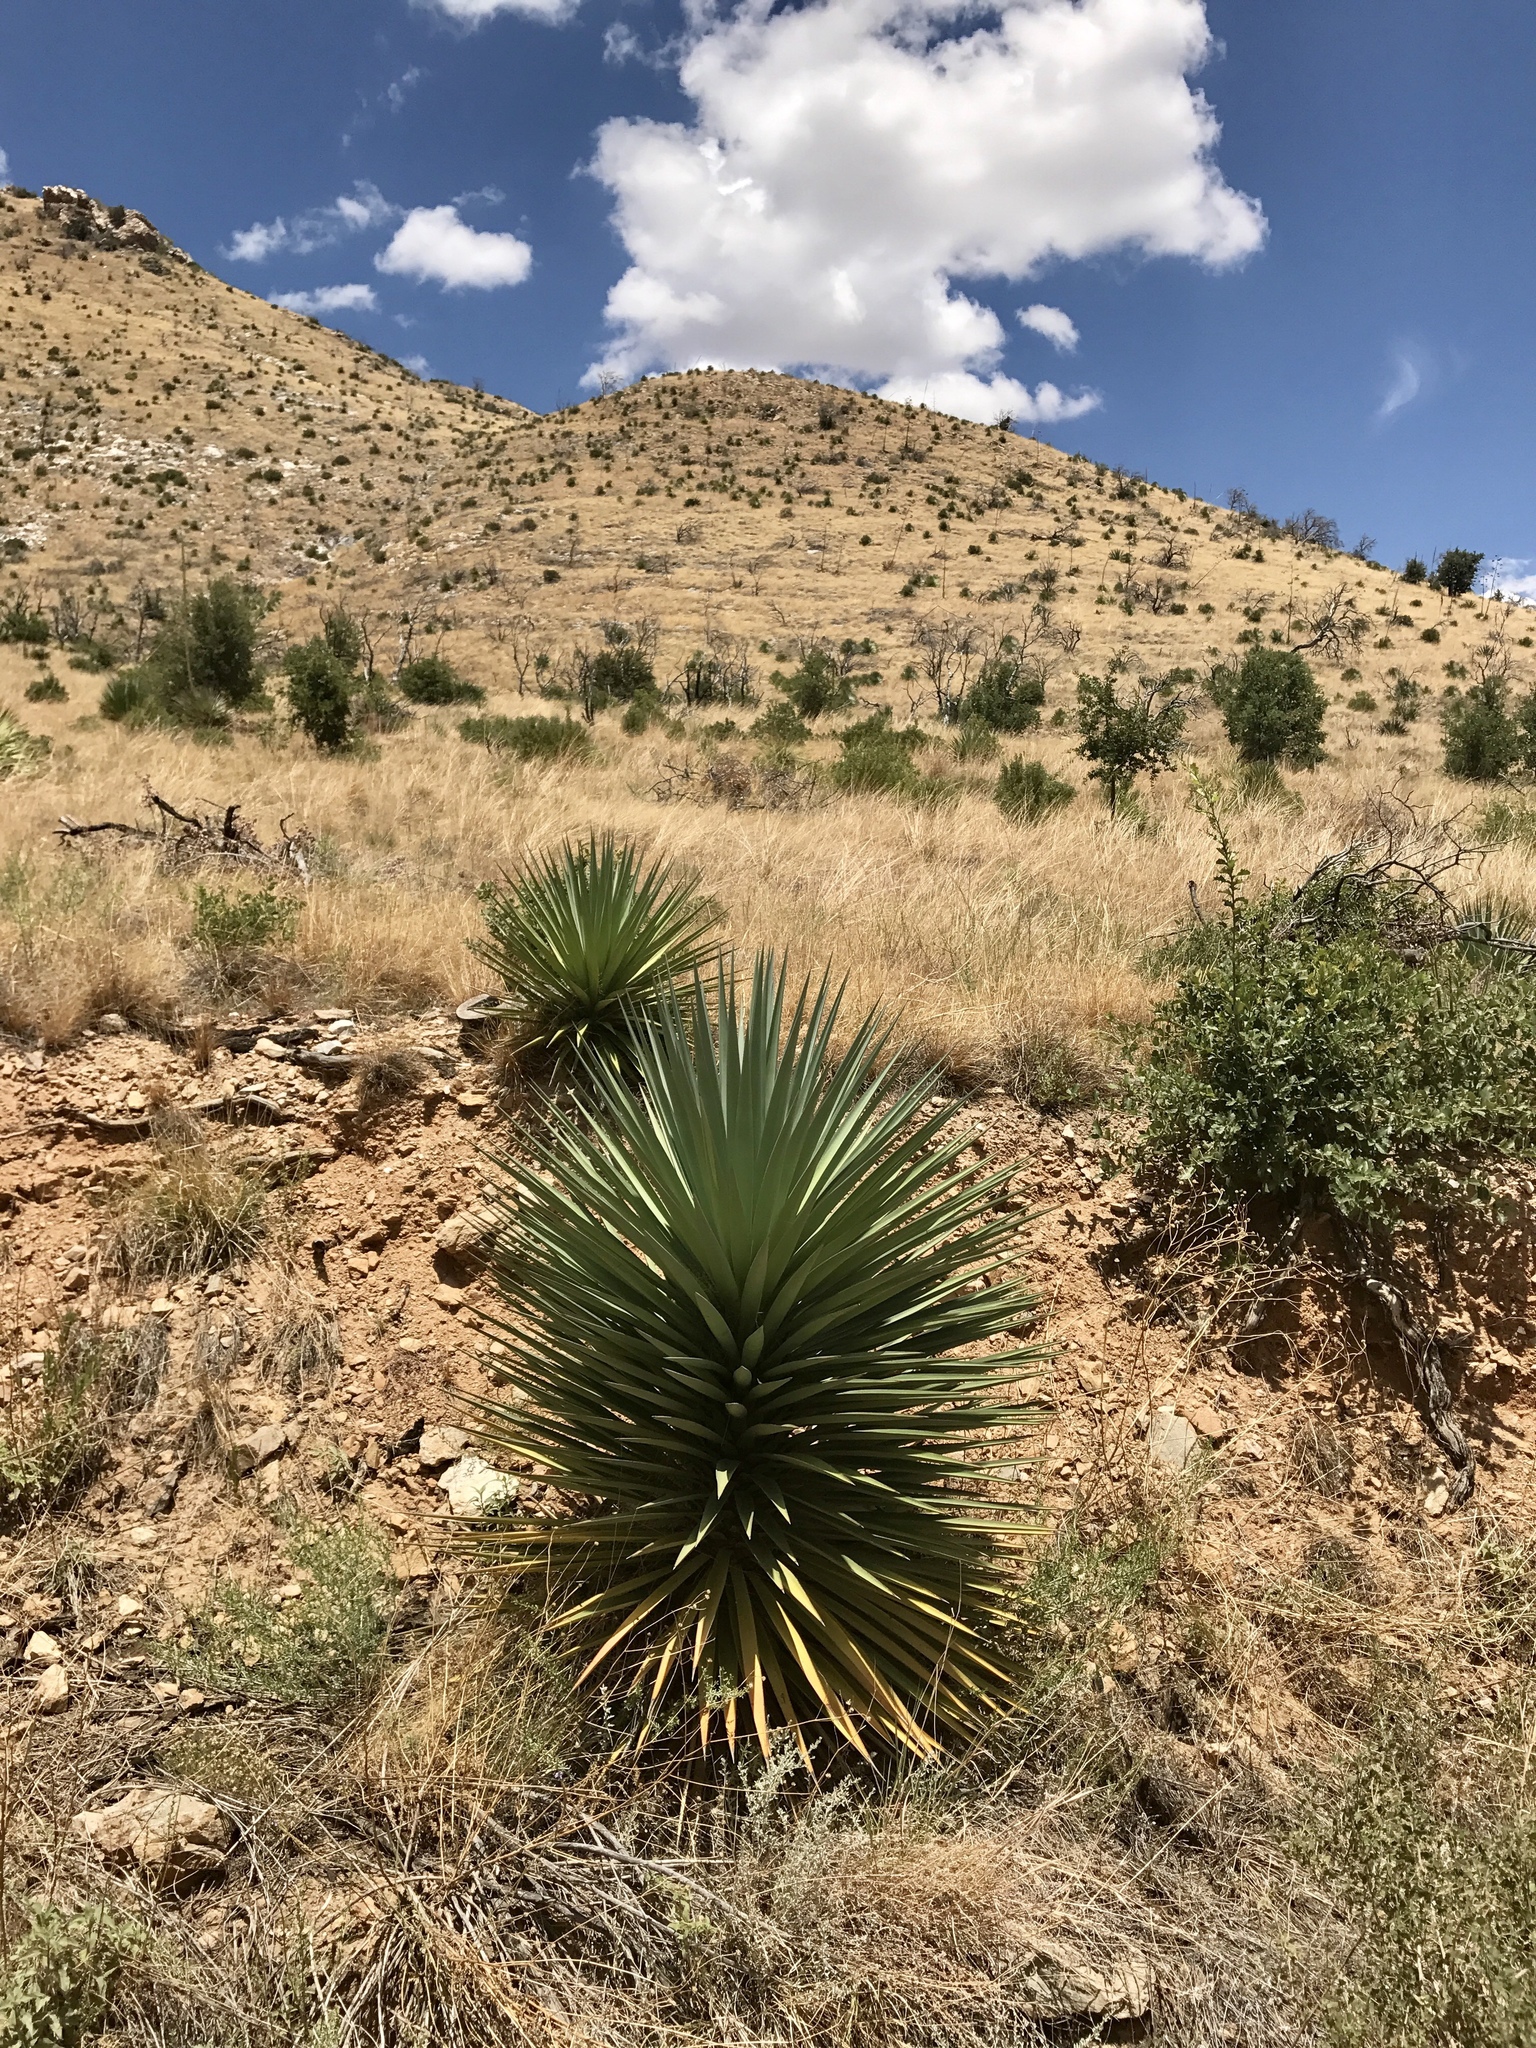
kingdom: Plantae
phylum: Tracheophyta
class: Liliopsida
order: Asparagales
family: Asparagaceae
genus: Yucca
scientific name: Yucca madrensis
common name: Hoary yucca
